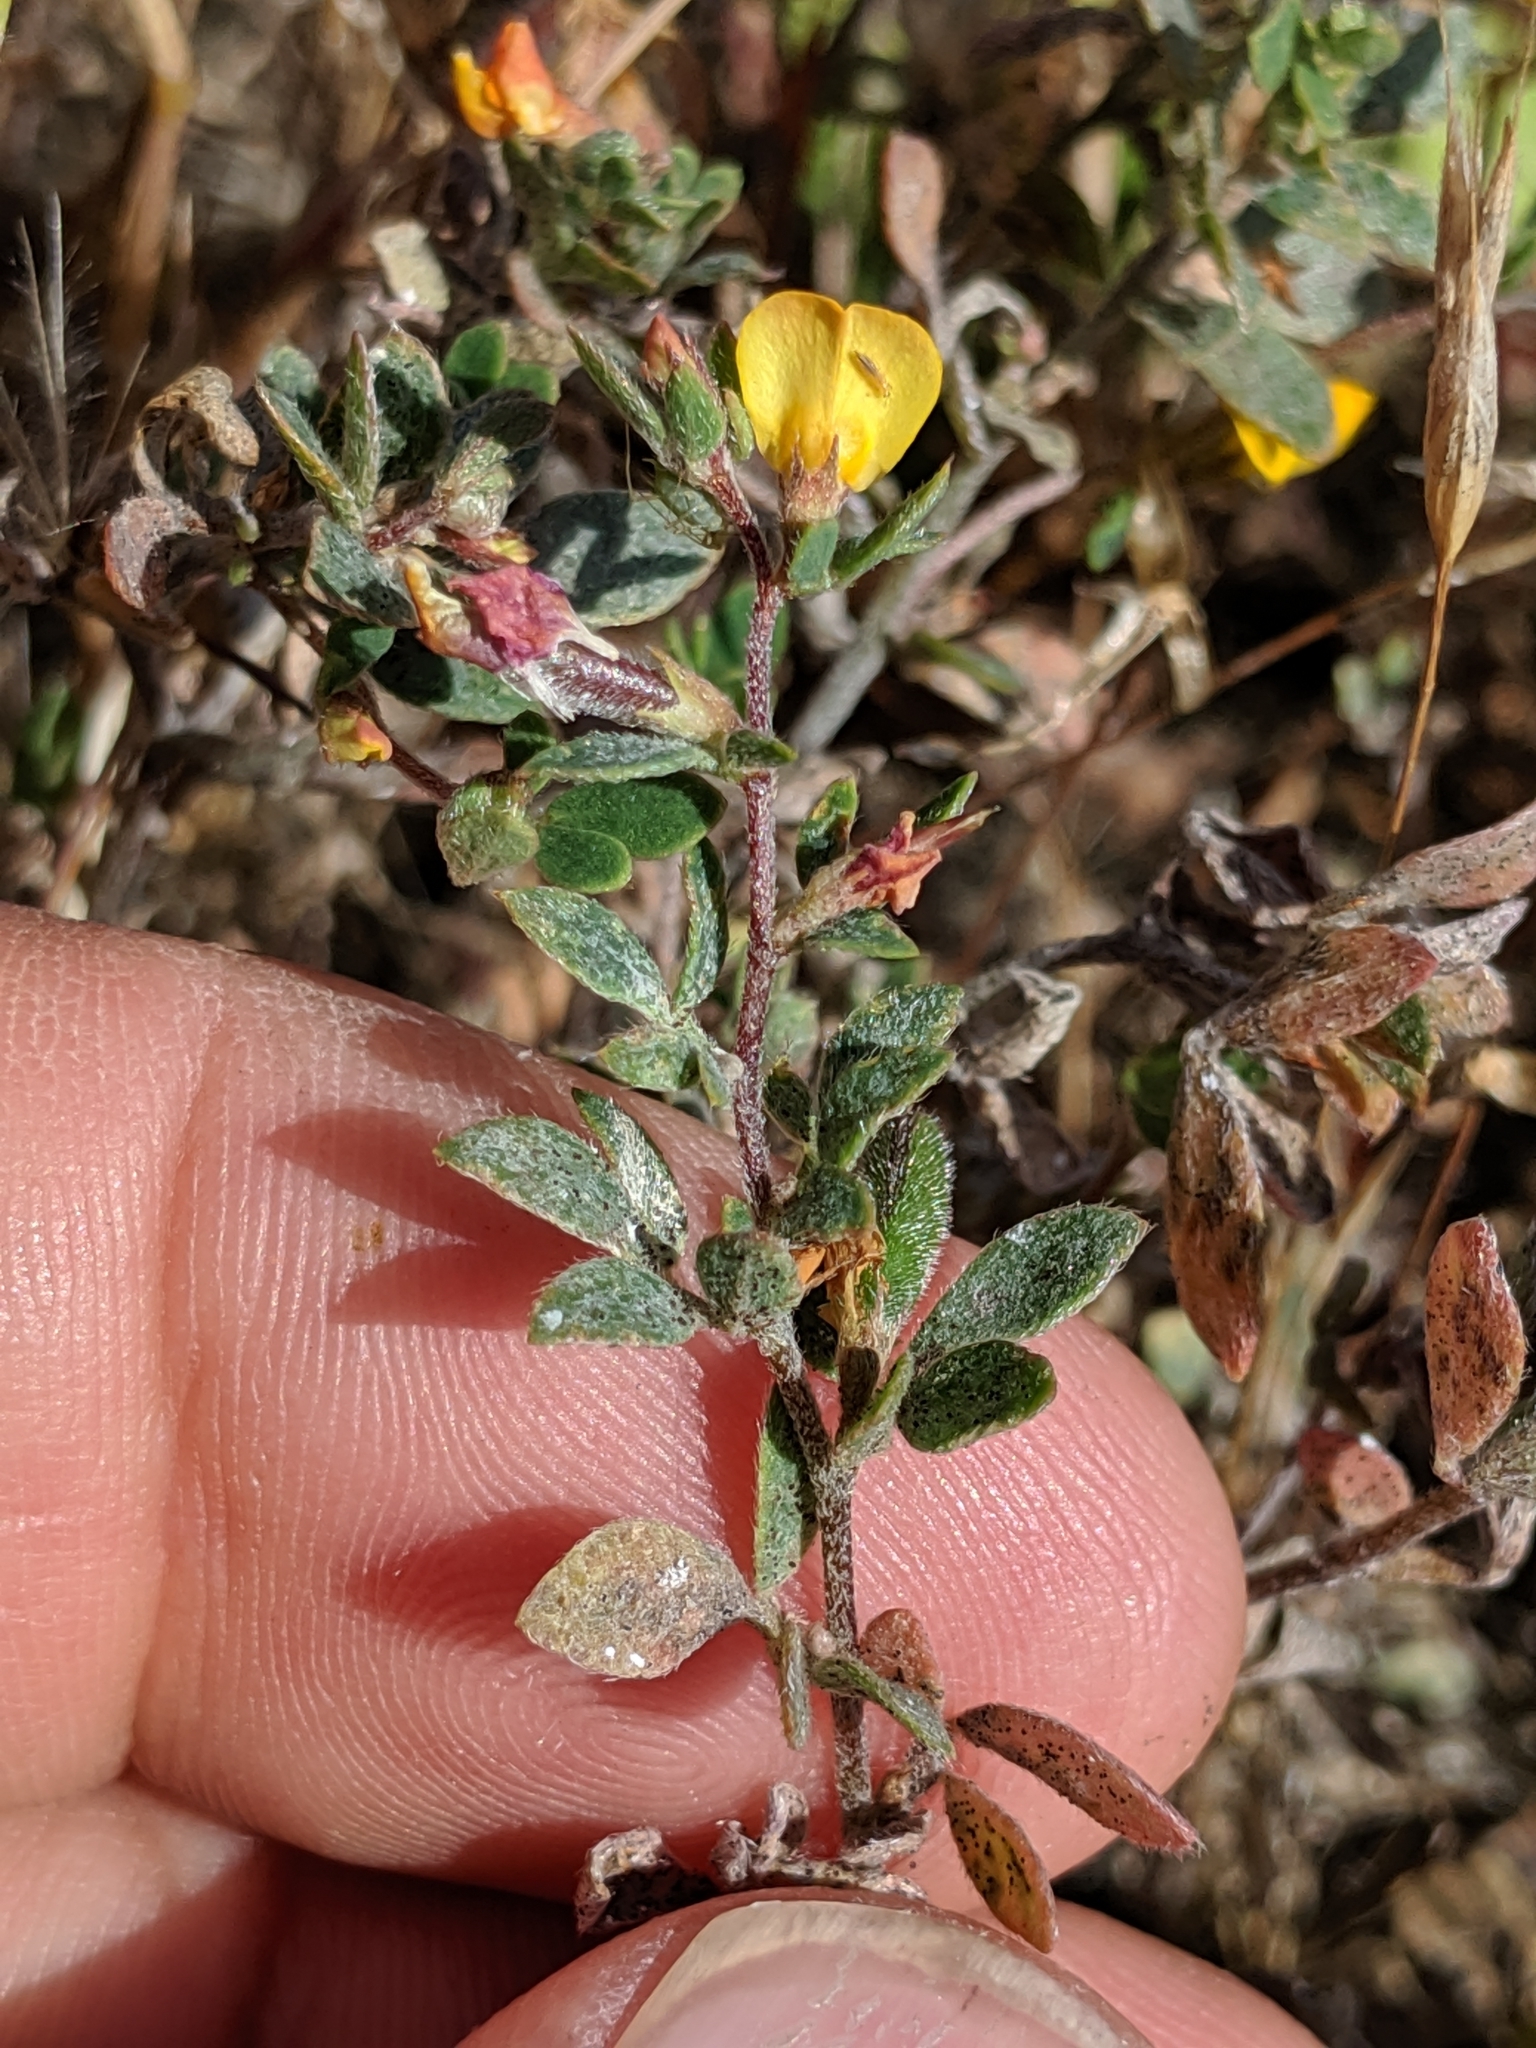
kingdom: Plantae
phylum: Tracheophyta
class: Magnoliopsida
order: Fabales
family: Fabaceae
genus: Acmispon
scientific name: Acmispon wrangelianus
